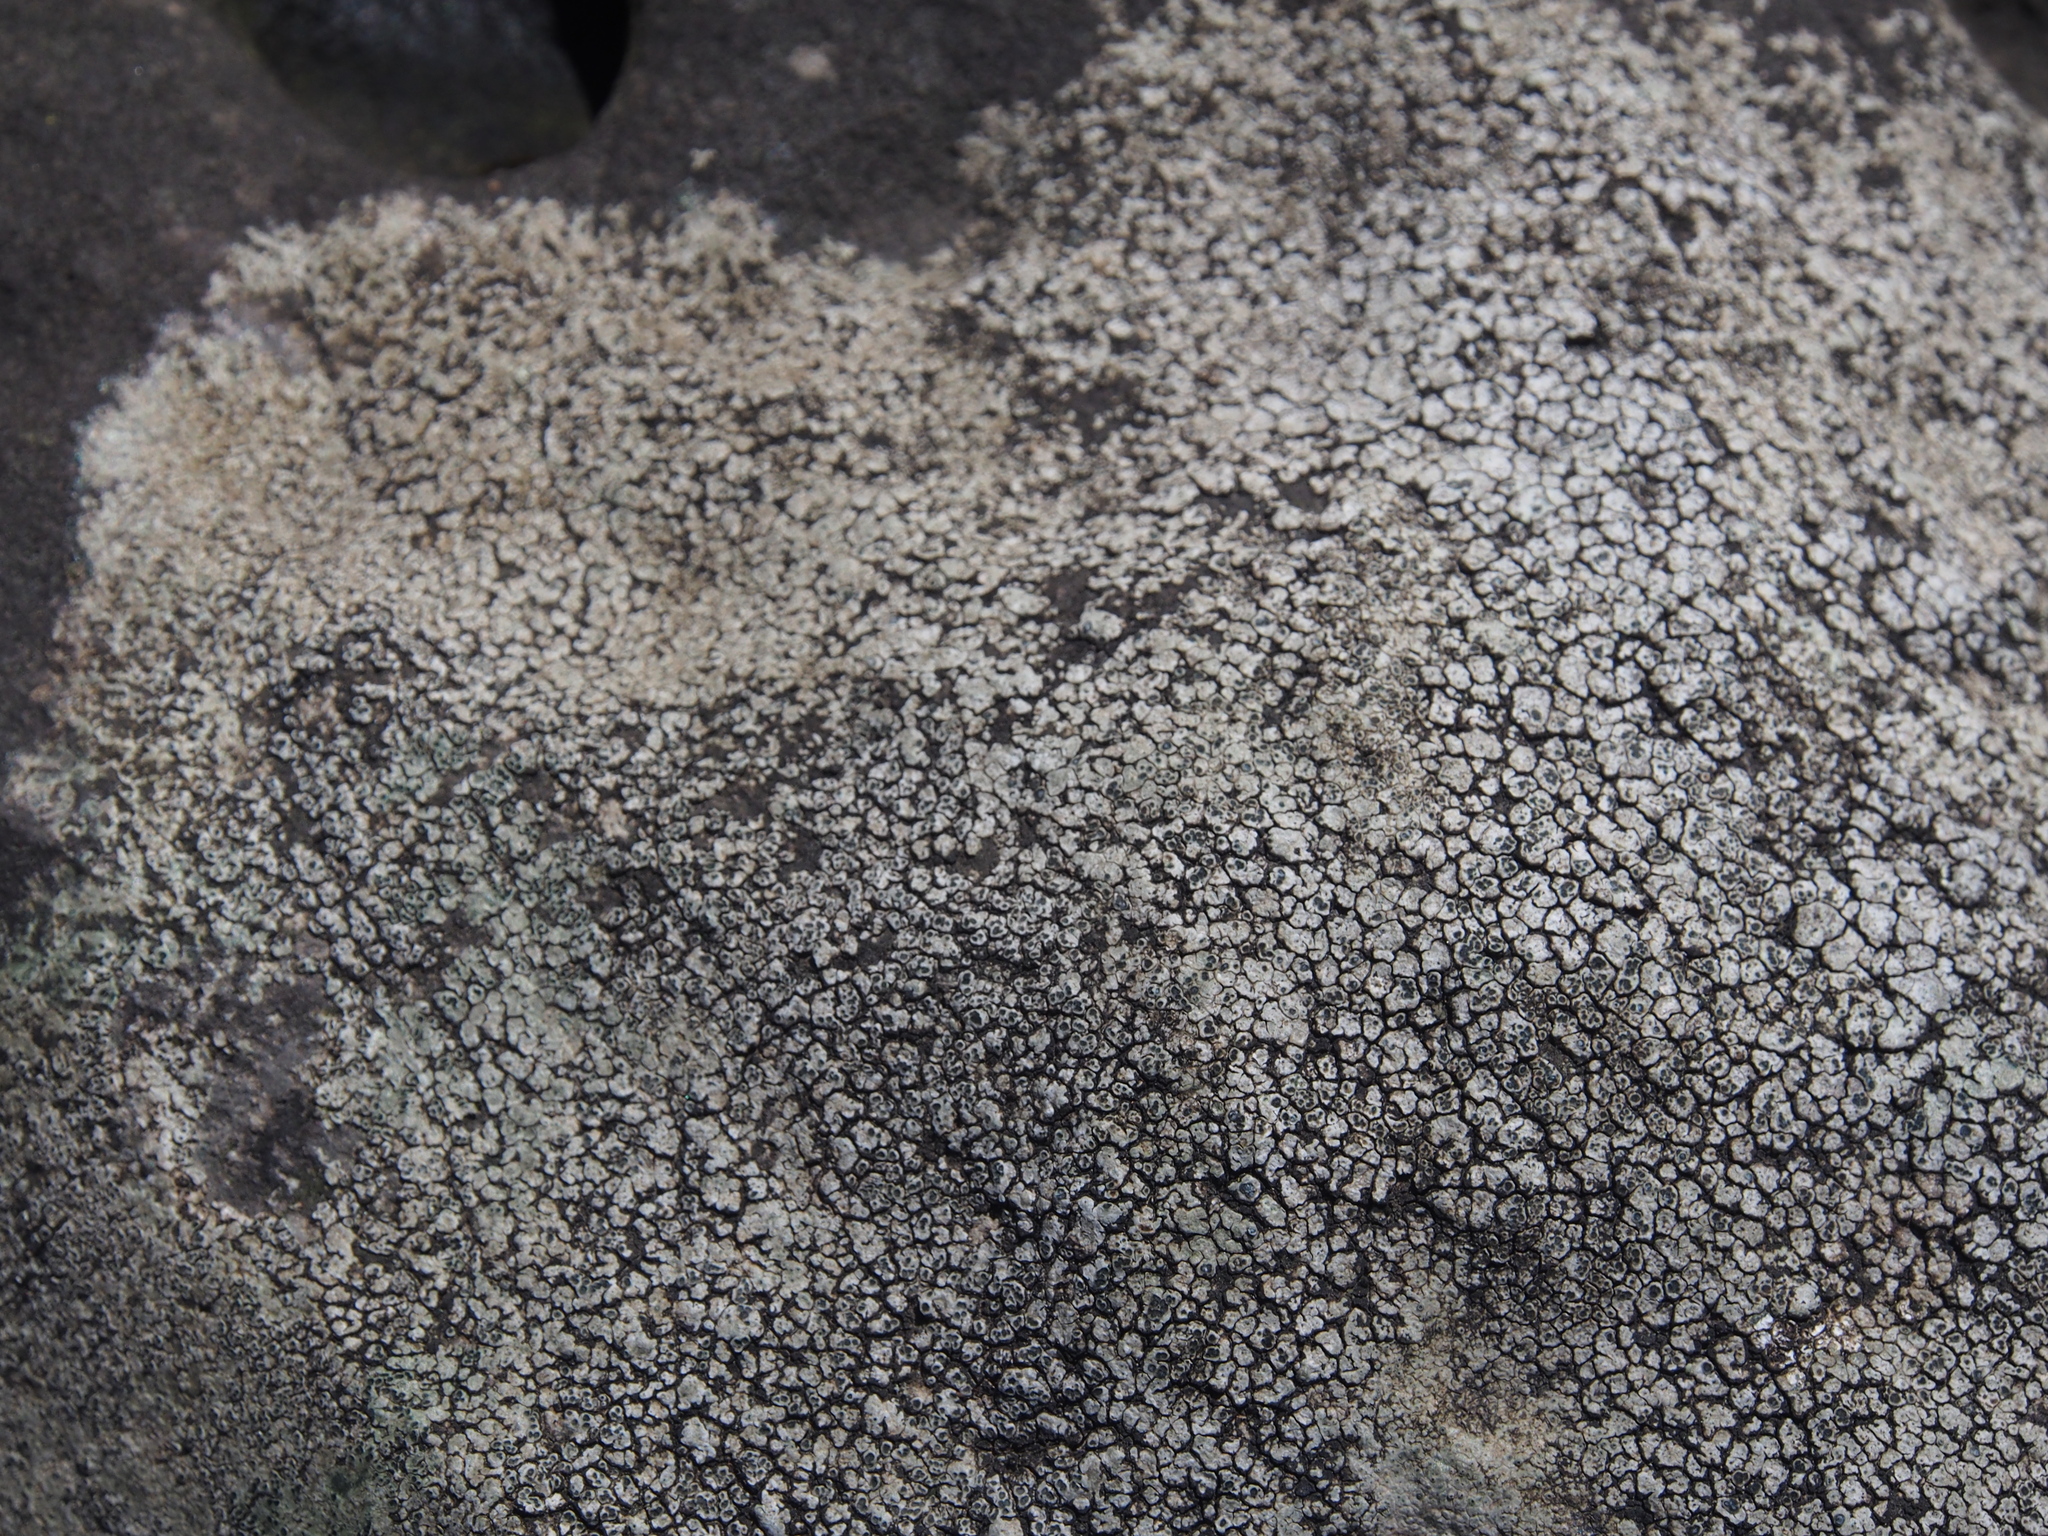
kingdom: Fungi
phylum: Basidiomycota
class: Agaricomycetes
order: Russulales
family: Stereaceae
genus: Xylobolus
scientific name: Xylobolus frustulatus
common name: Ceramic parchment
